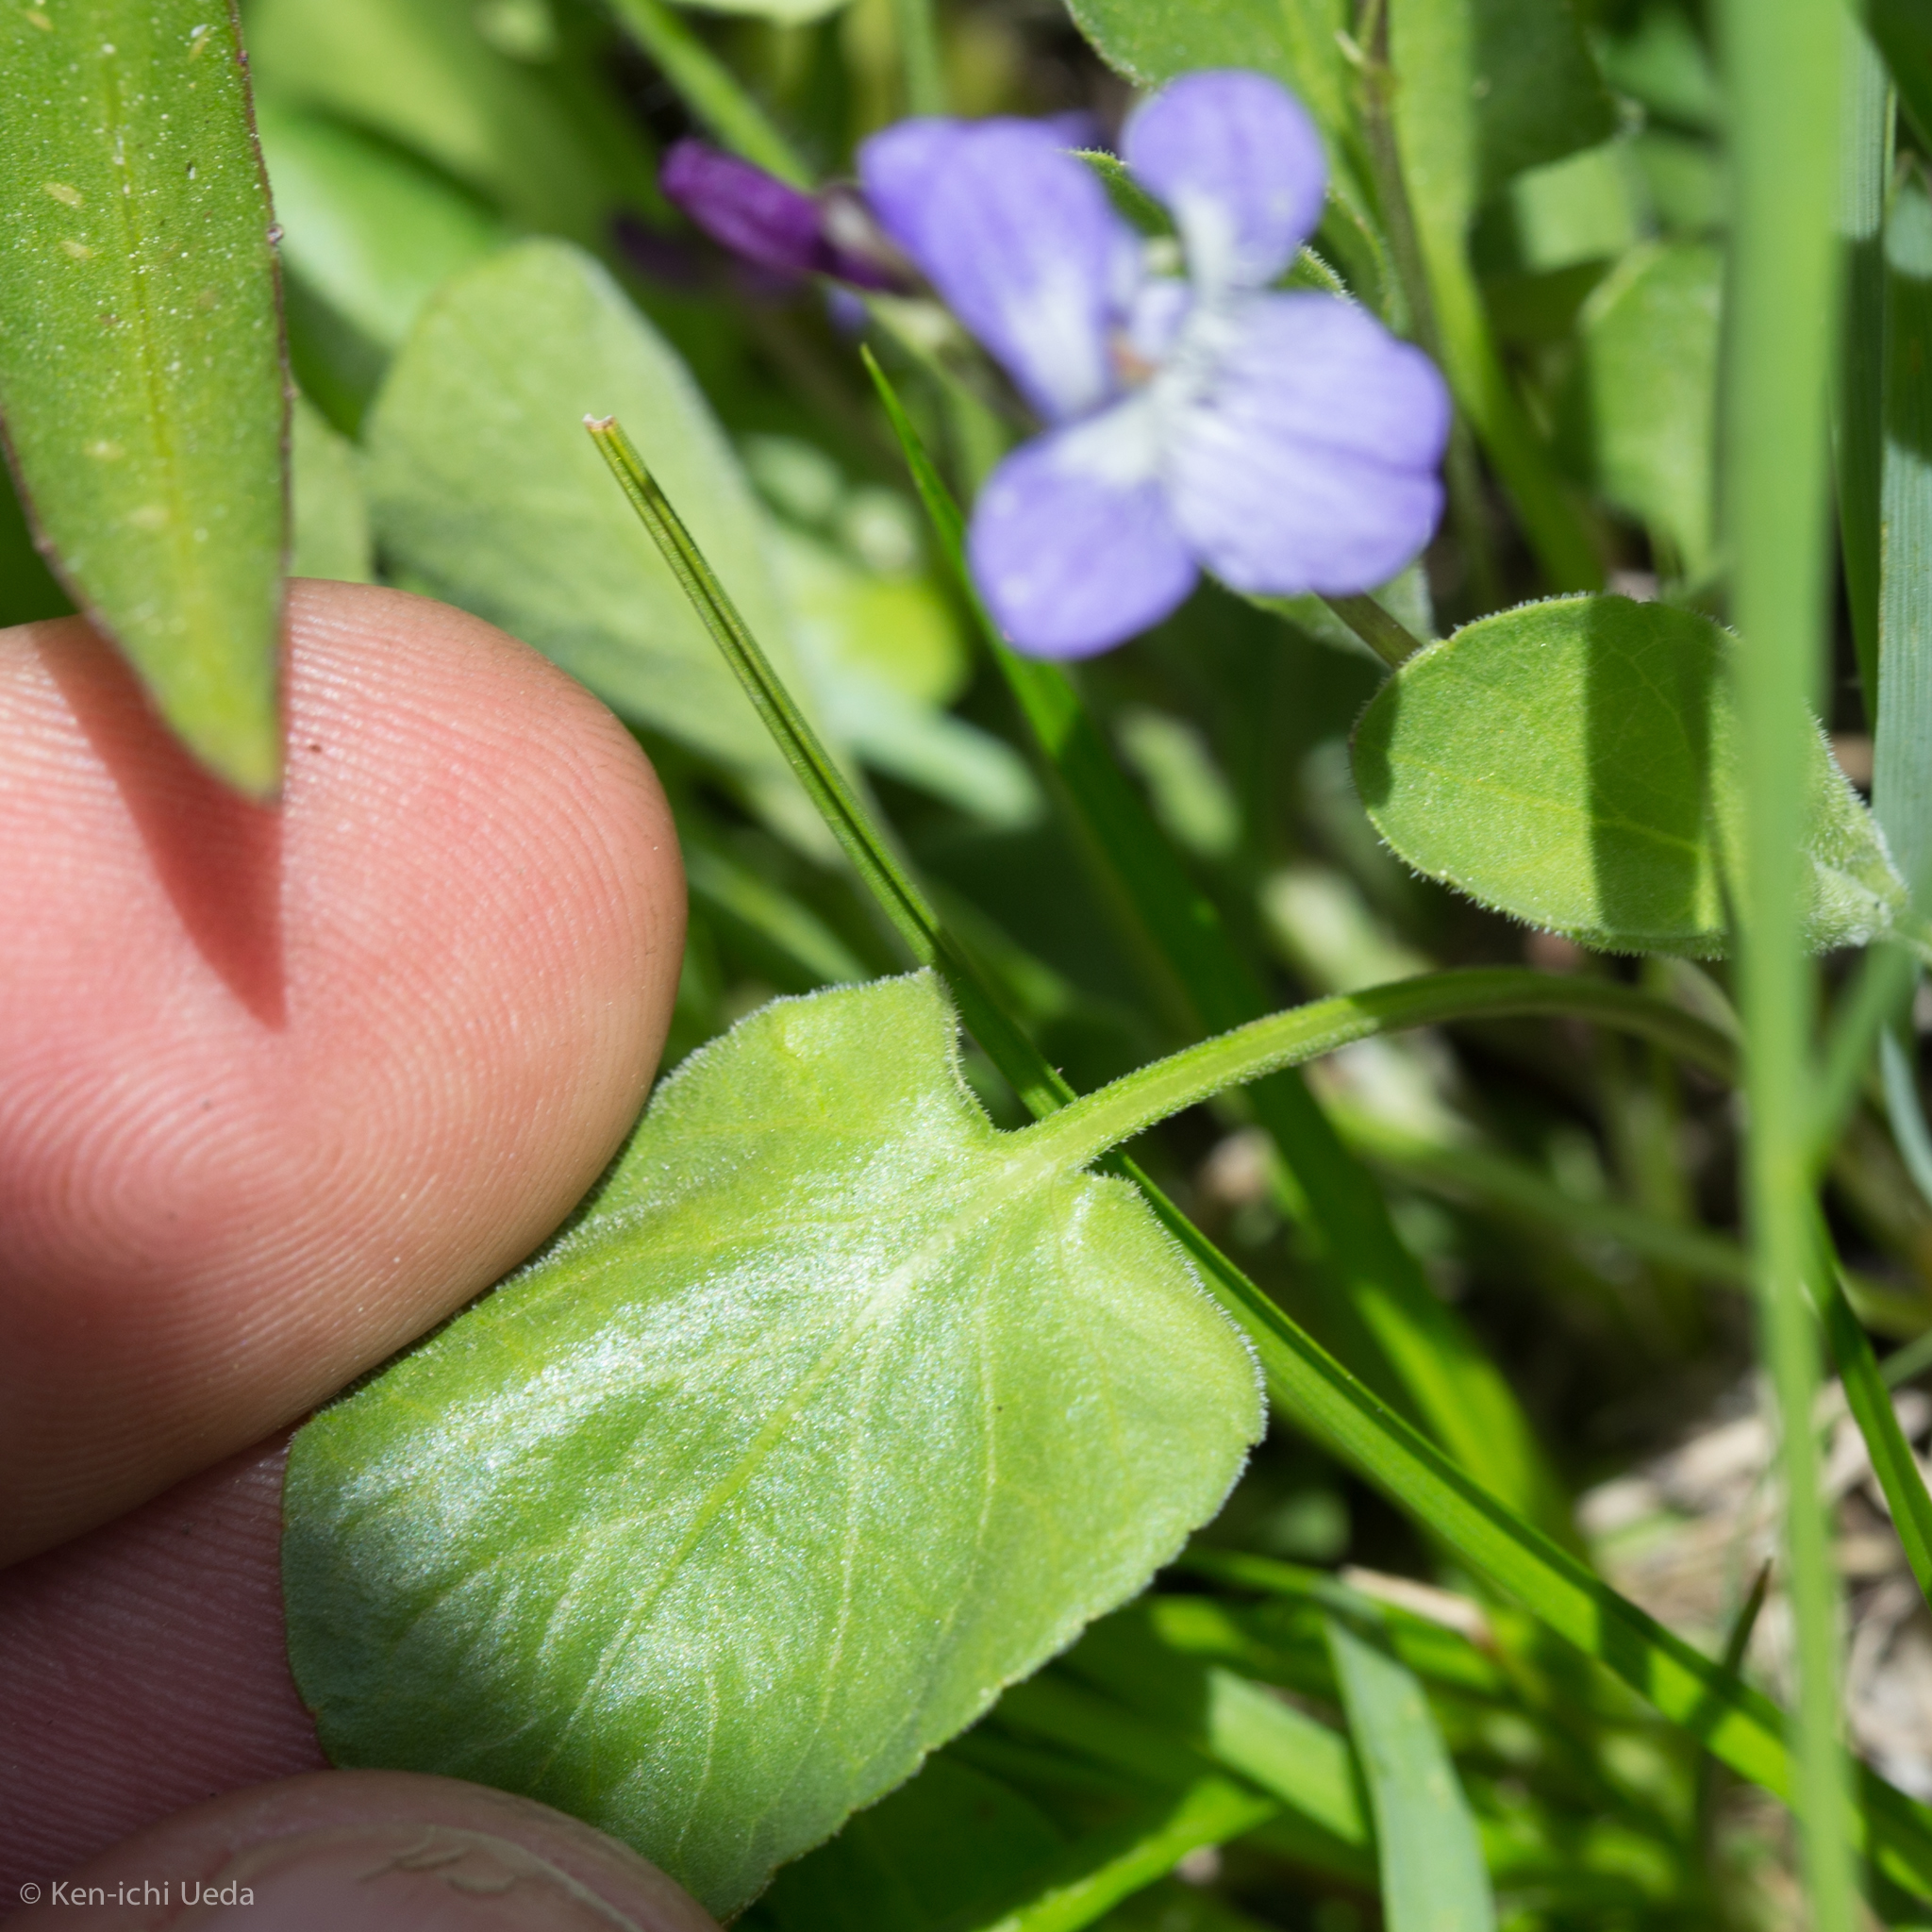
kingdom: Plantae
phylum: Tracheophyta
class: Magnoliopsida
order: Malpighiales
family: Violaceae
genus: Viola
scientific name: Viola adunca
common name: Sand violet
